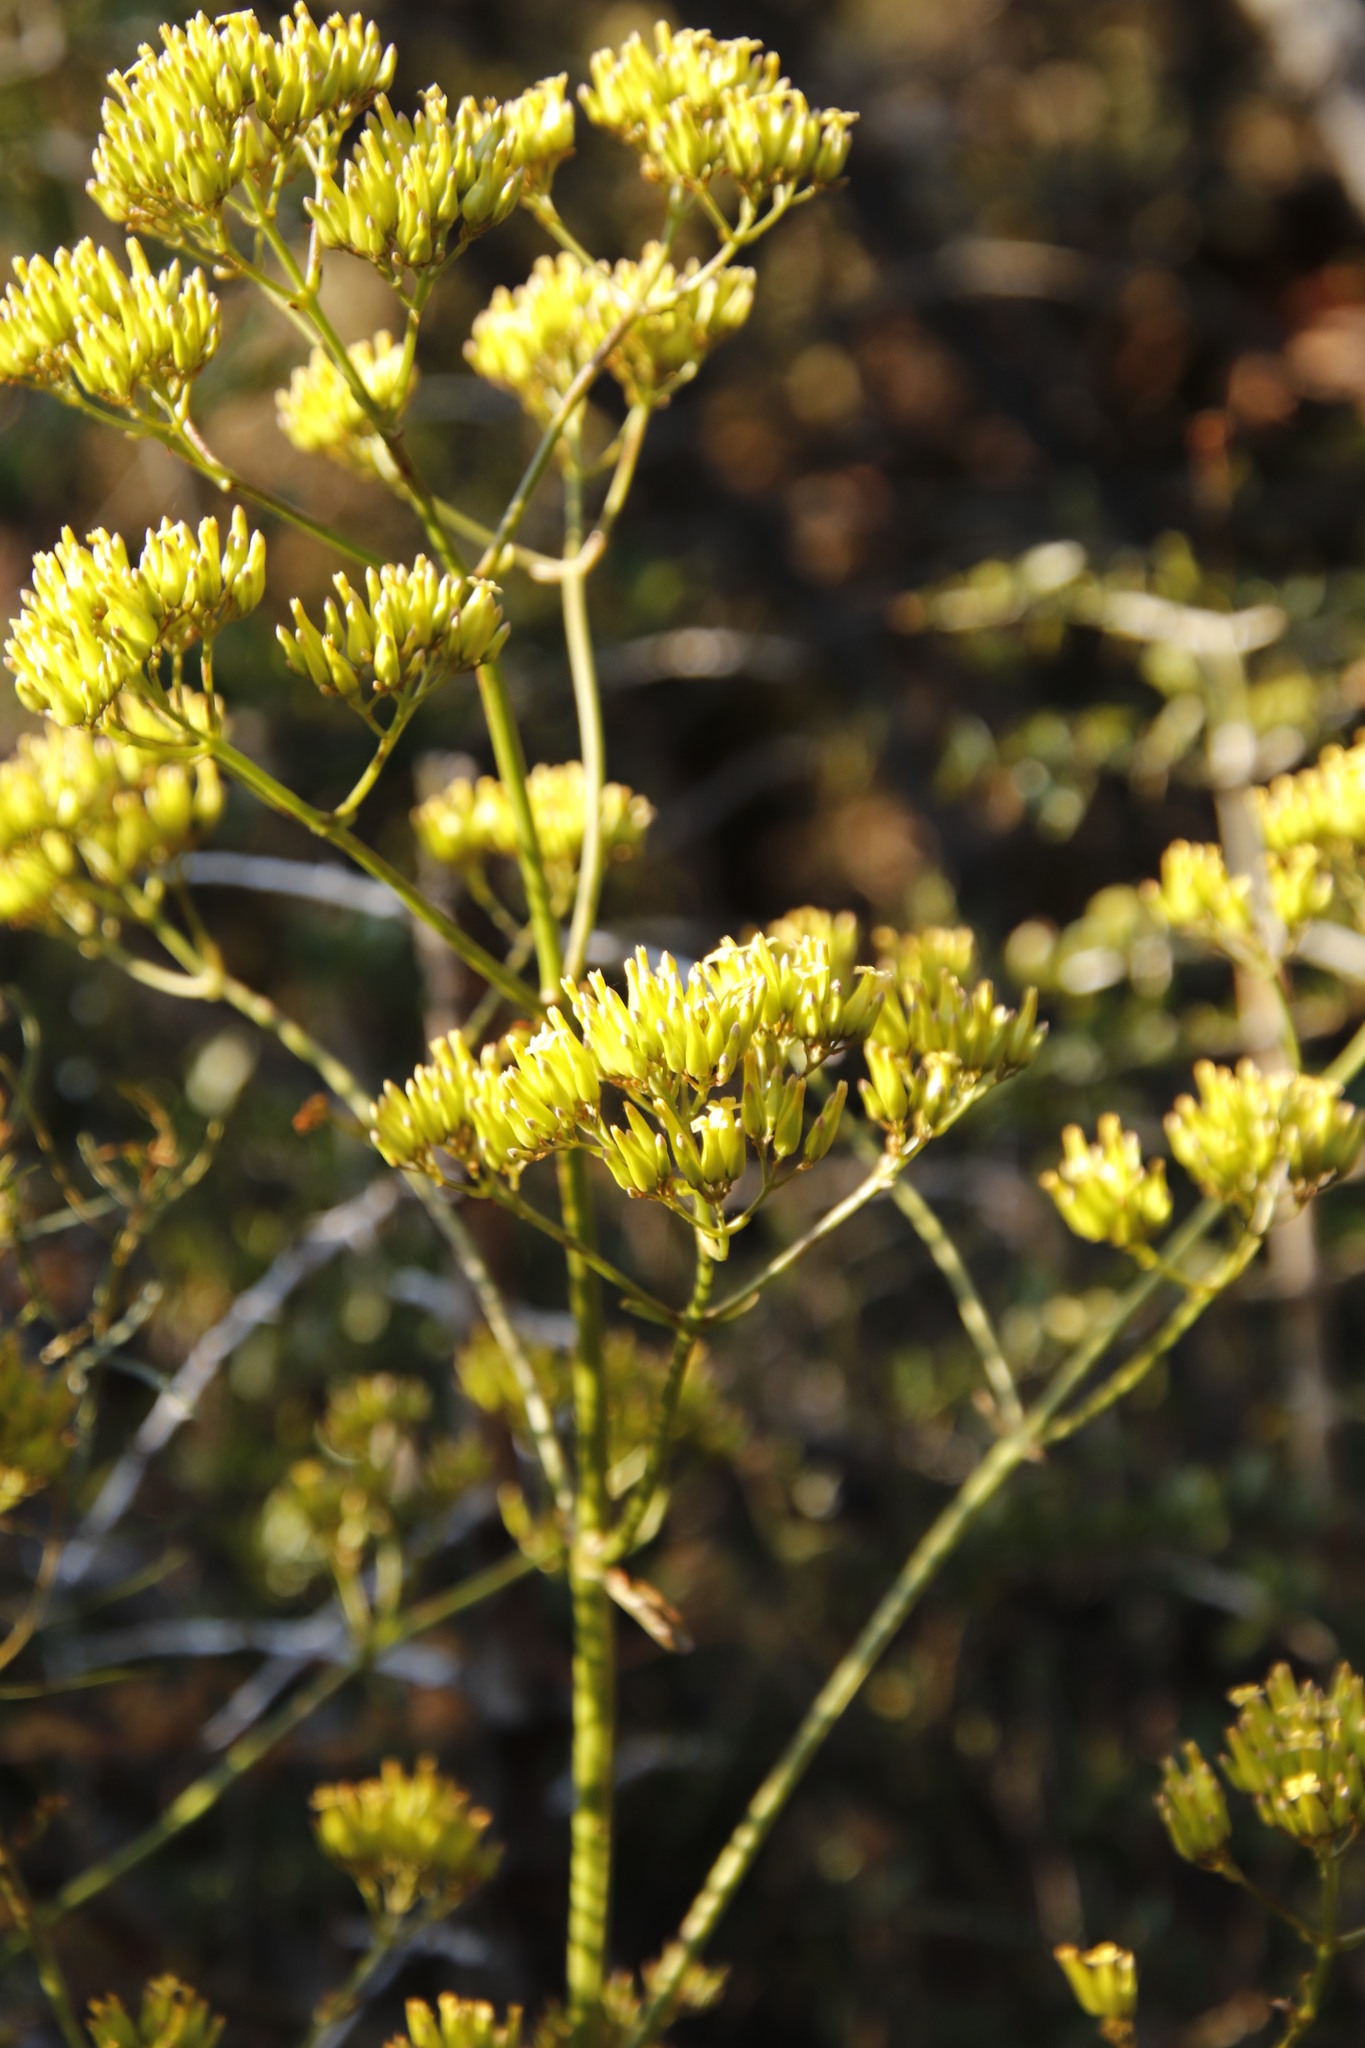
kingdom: Plantae
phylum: Tracheophyta
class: Magnoliopsida
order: Saxifragales
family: Crassulaceae
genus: Kalanchoe
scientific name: Kalanchoe brachyloba
